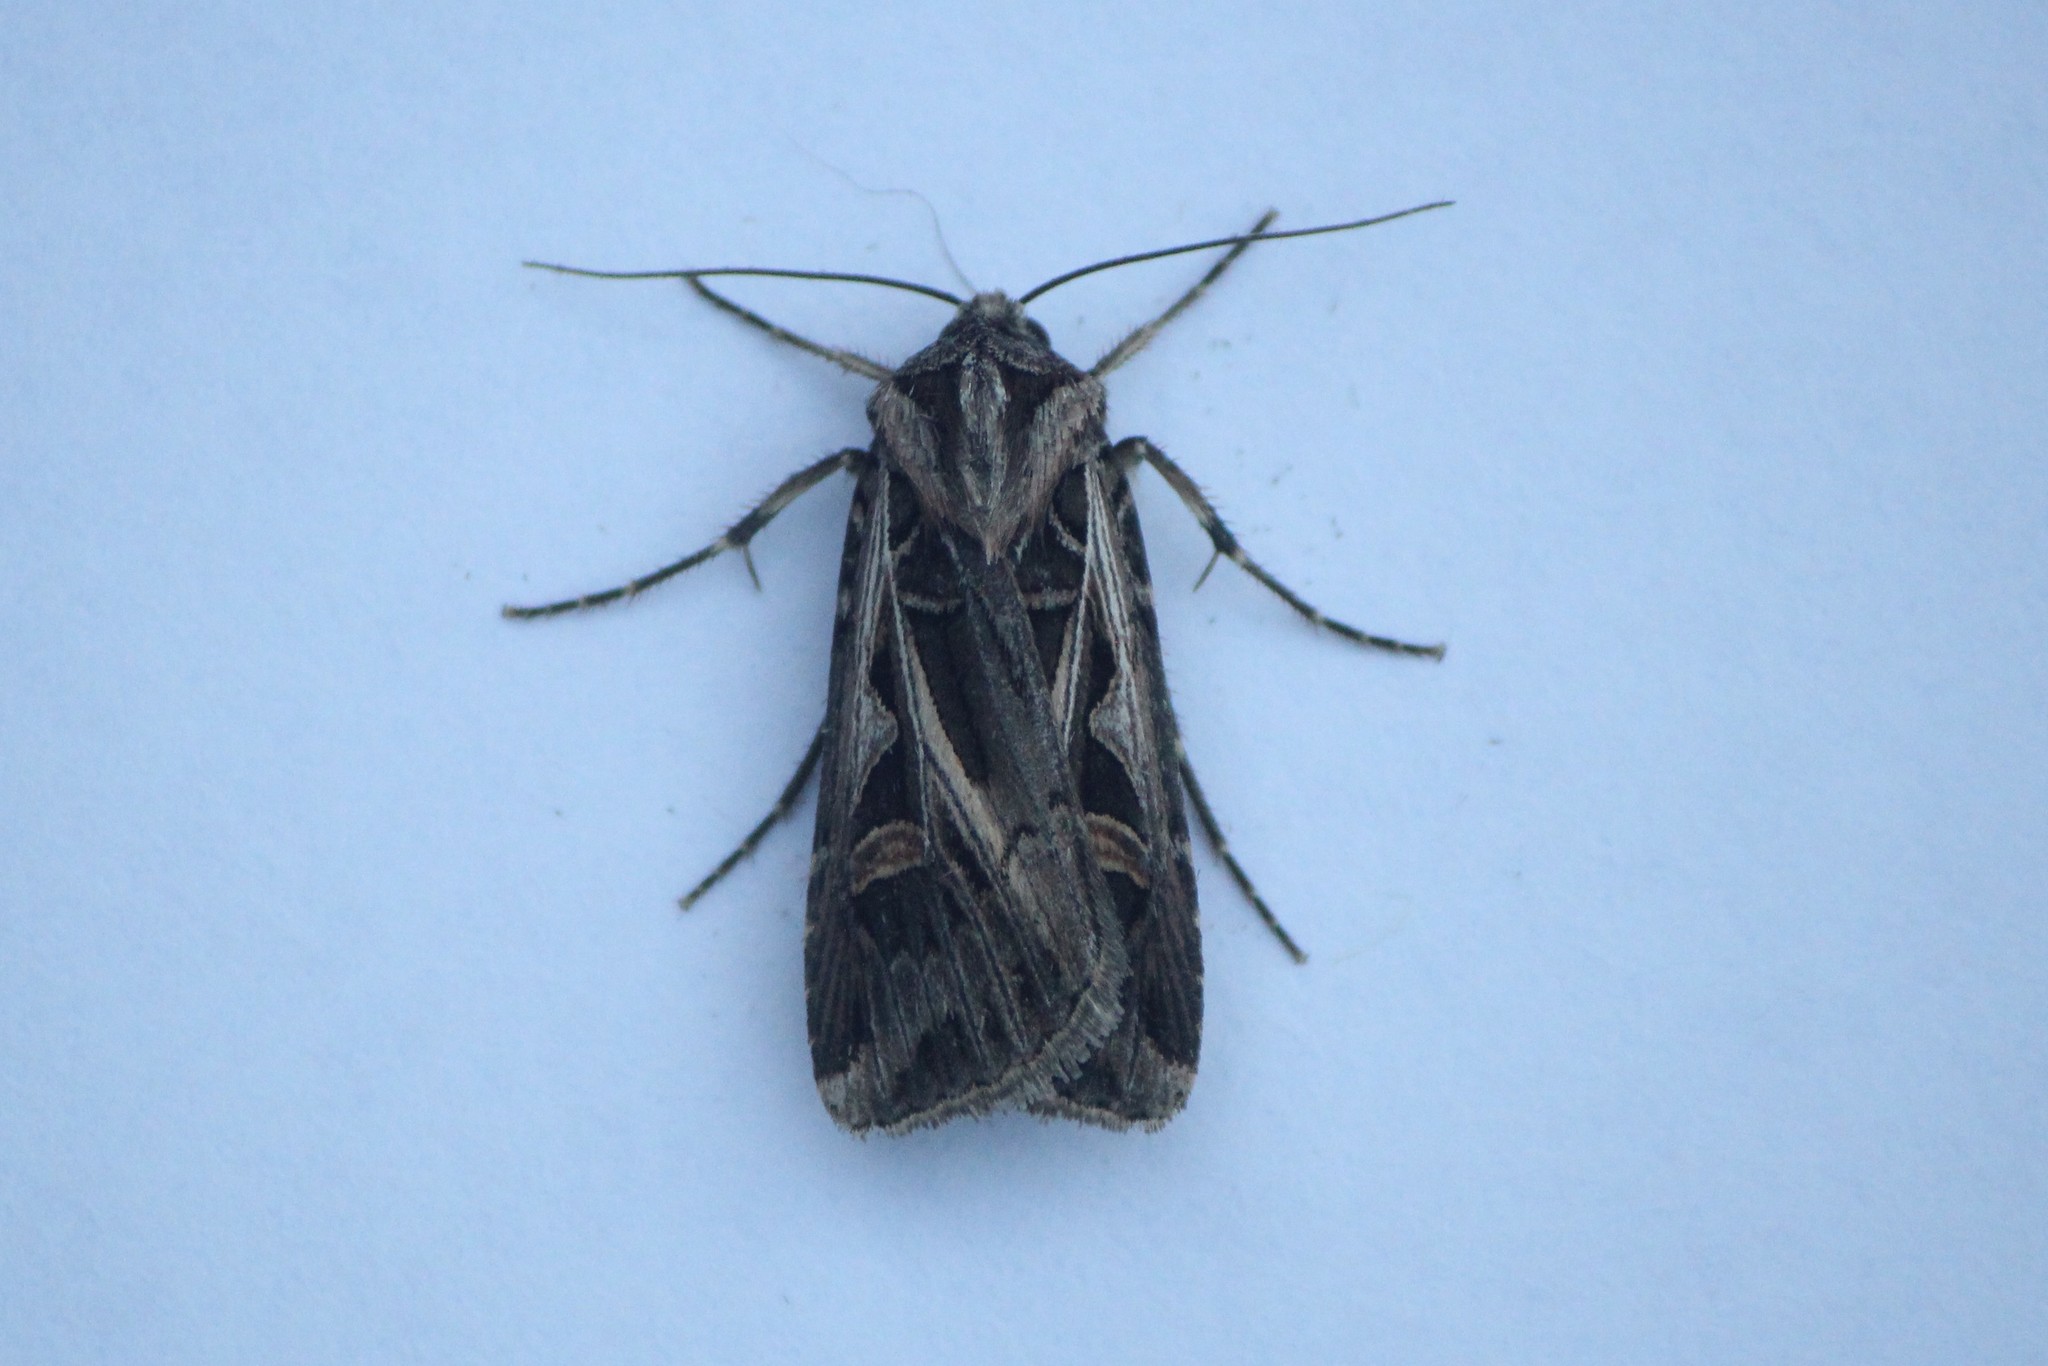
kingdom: Animalia
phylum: Arthropoda
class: Insecta
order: Lepidoptera
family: Noctuidae
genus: Feltia
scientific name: Feltia jaculifera
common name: Dingy cutworm moth
